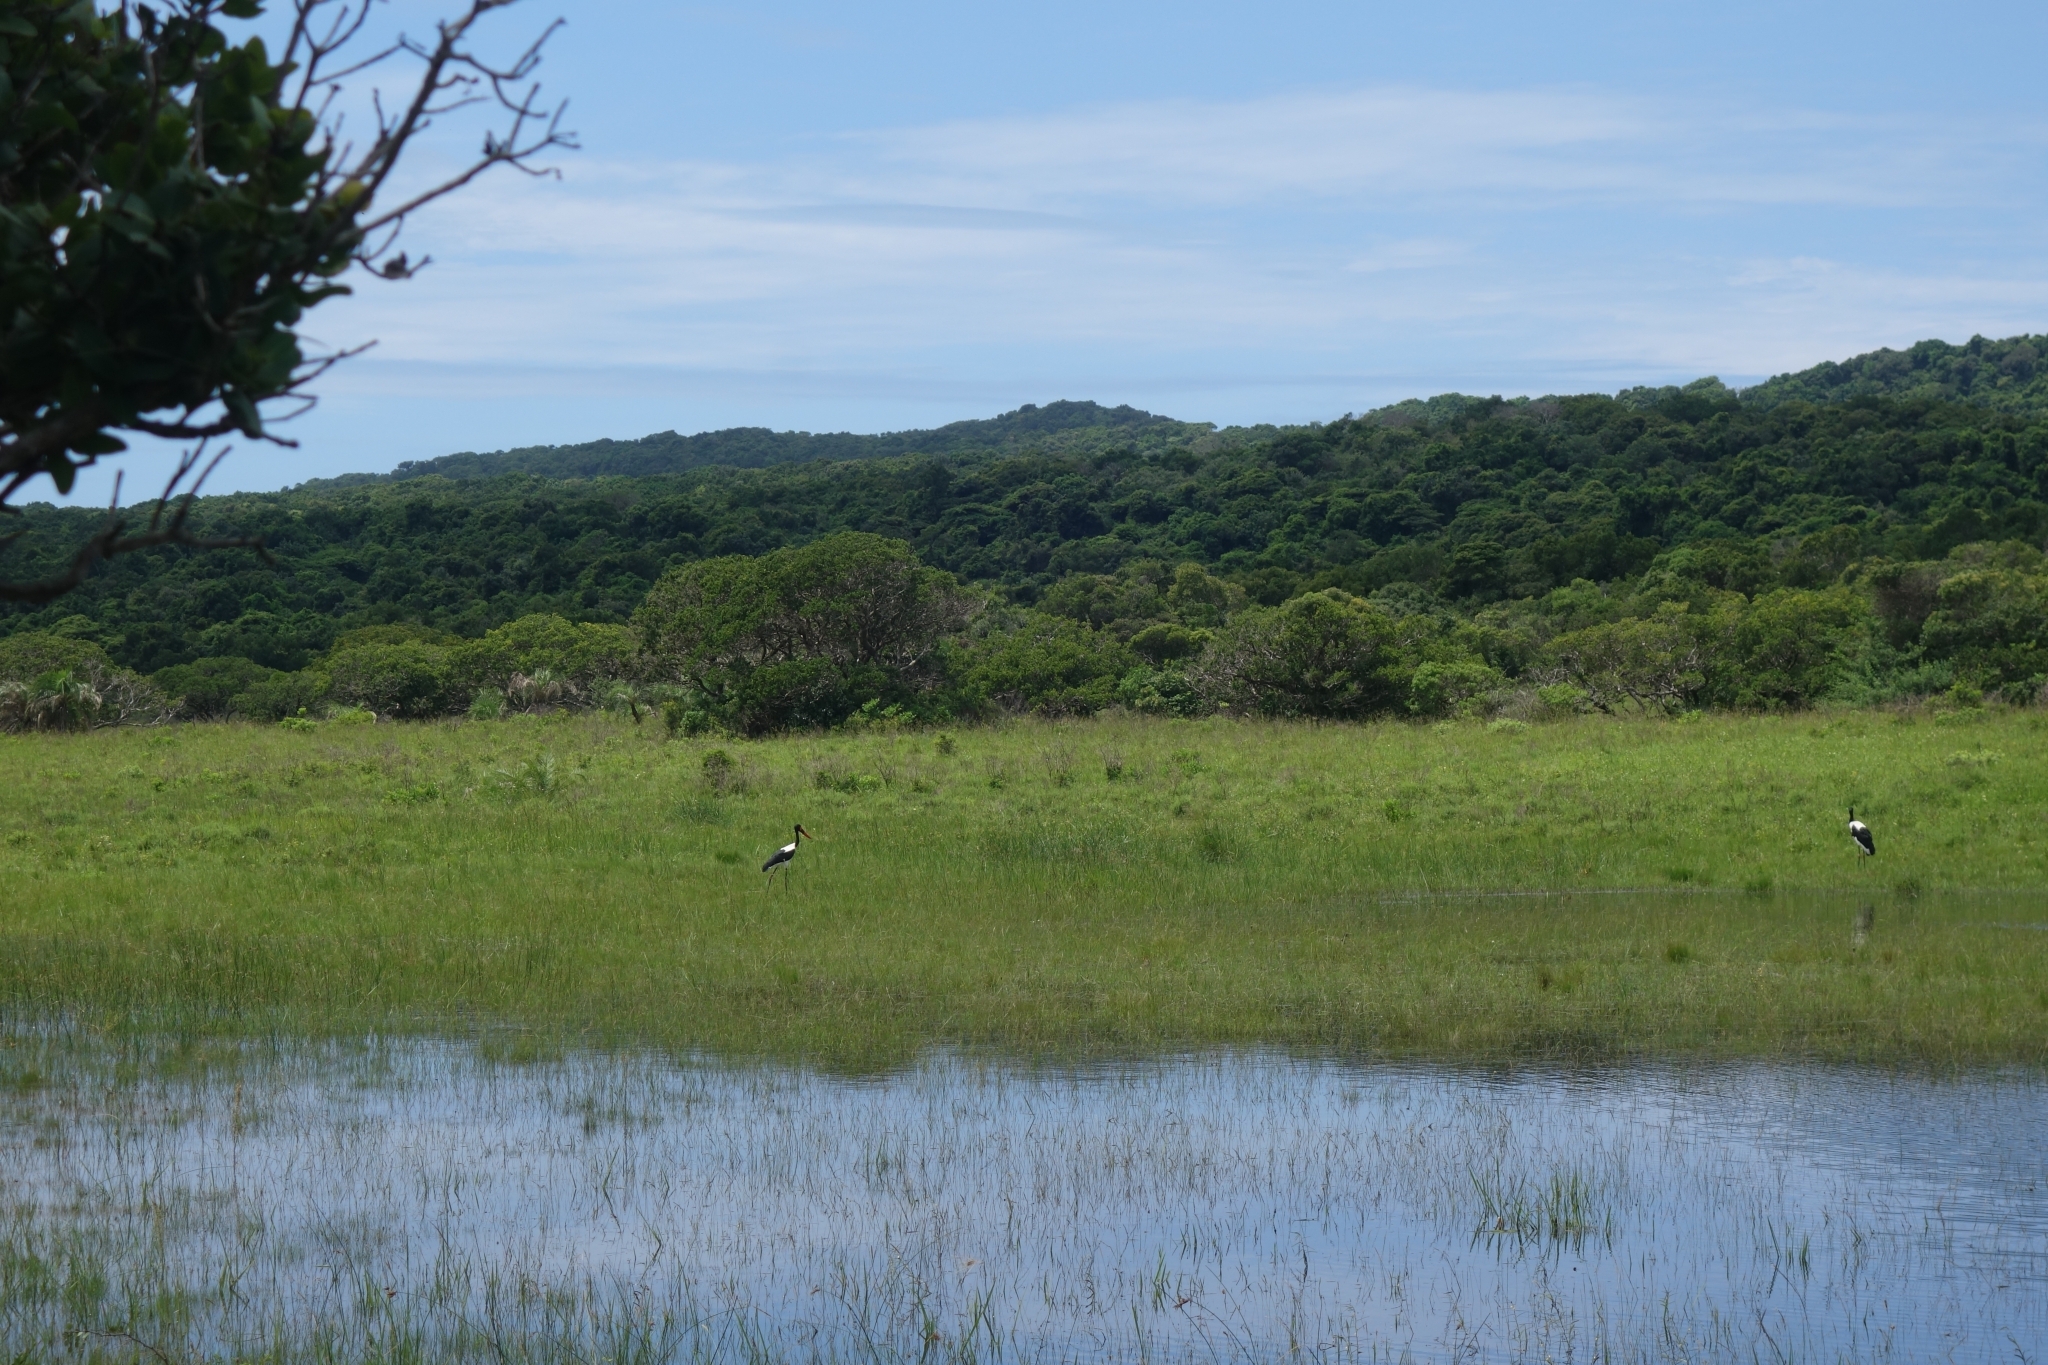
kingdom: Animalia
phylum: Chordata
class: Aves
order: Ciconiiformes
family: Ciconiidae
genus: Ephippiorhynchus
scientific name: Ephippiorhynchus senegalensis
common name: Saddle-billed stork
